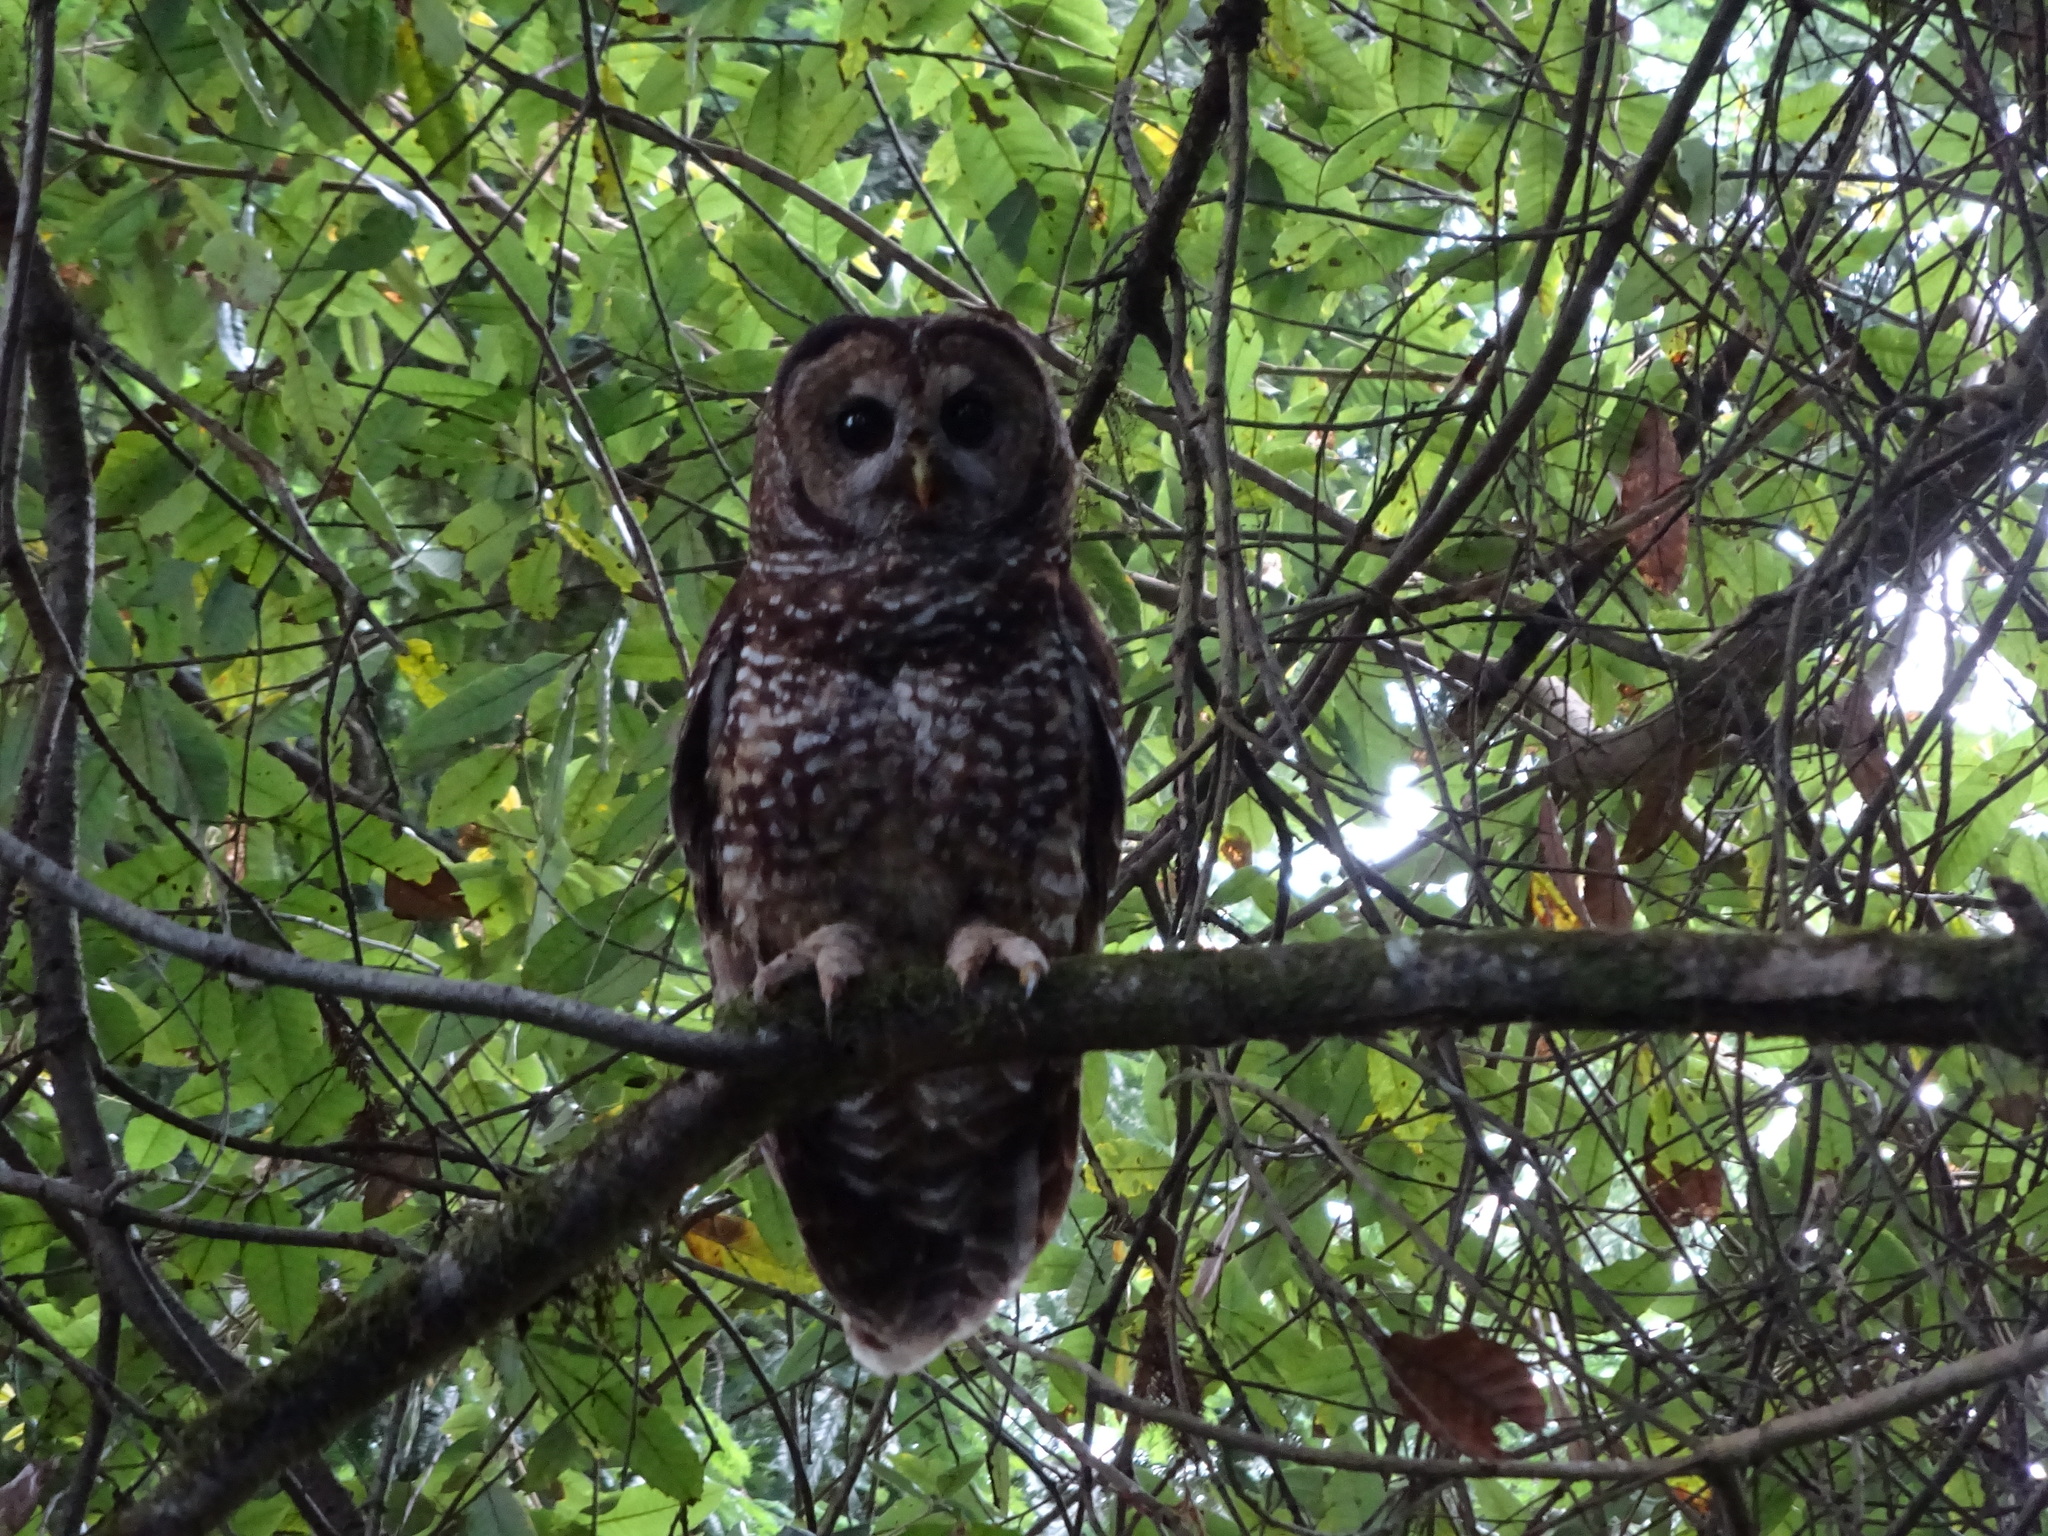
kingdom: Animalia
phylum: Chordata
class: Aves
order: Strigiformes
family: Strigidae
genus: Strix
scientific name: Strix occidentalis
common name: Spotted owl
